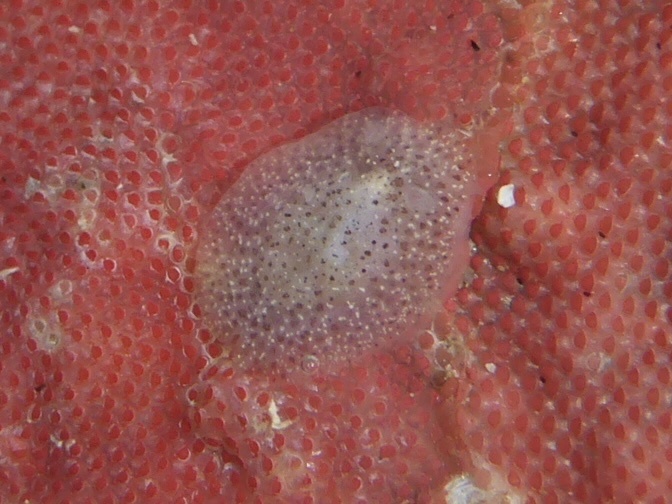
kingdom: Animalia
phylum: Mollusca
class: Gastropoda
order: Nudibranchia
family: Corambidae
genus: Corambe
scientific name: Corambe pacifica
